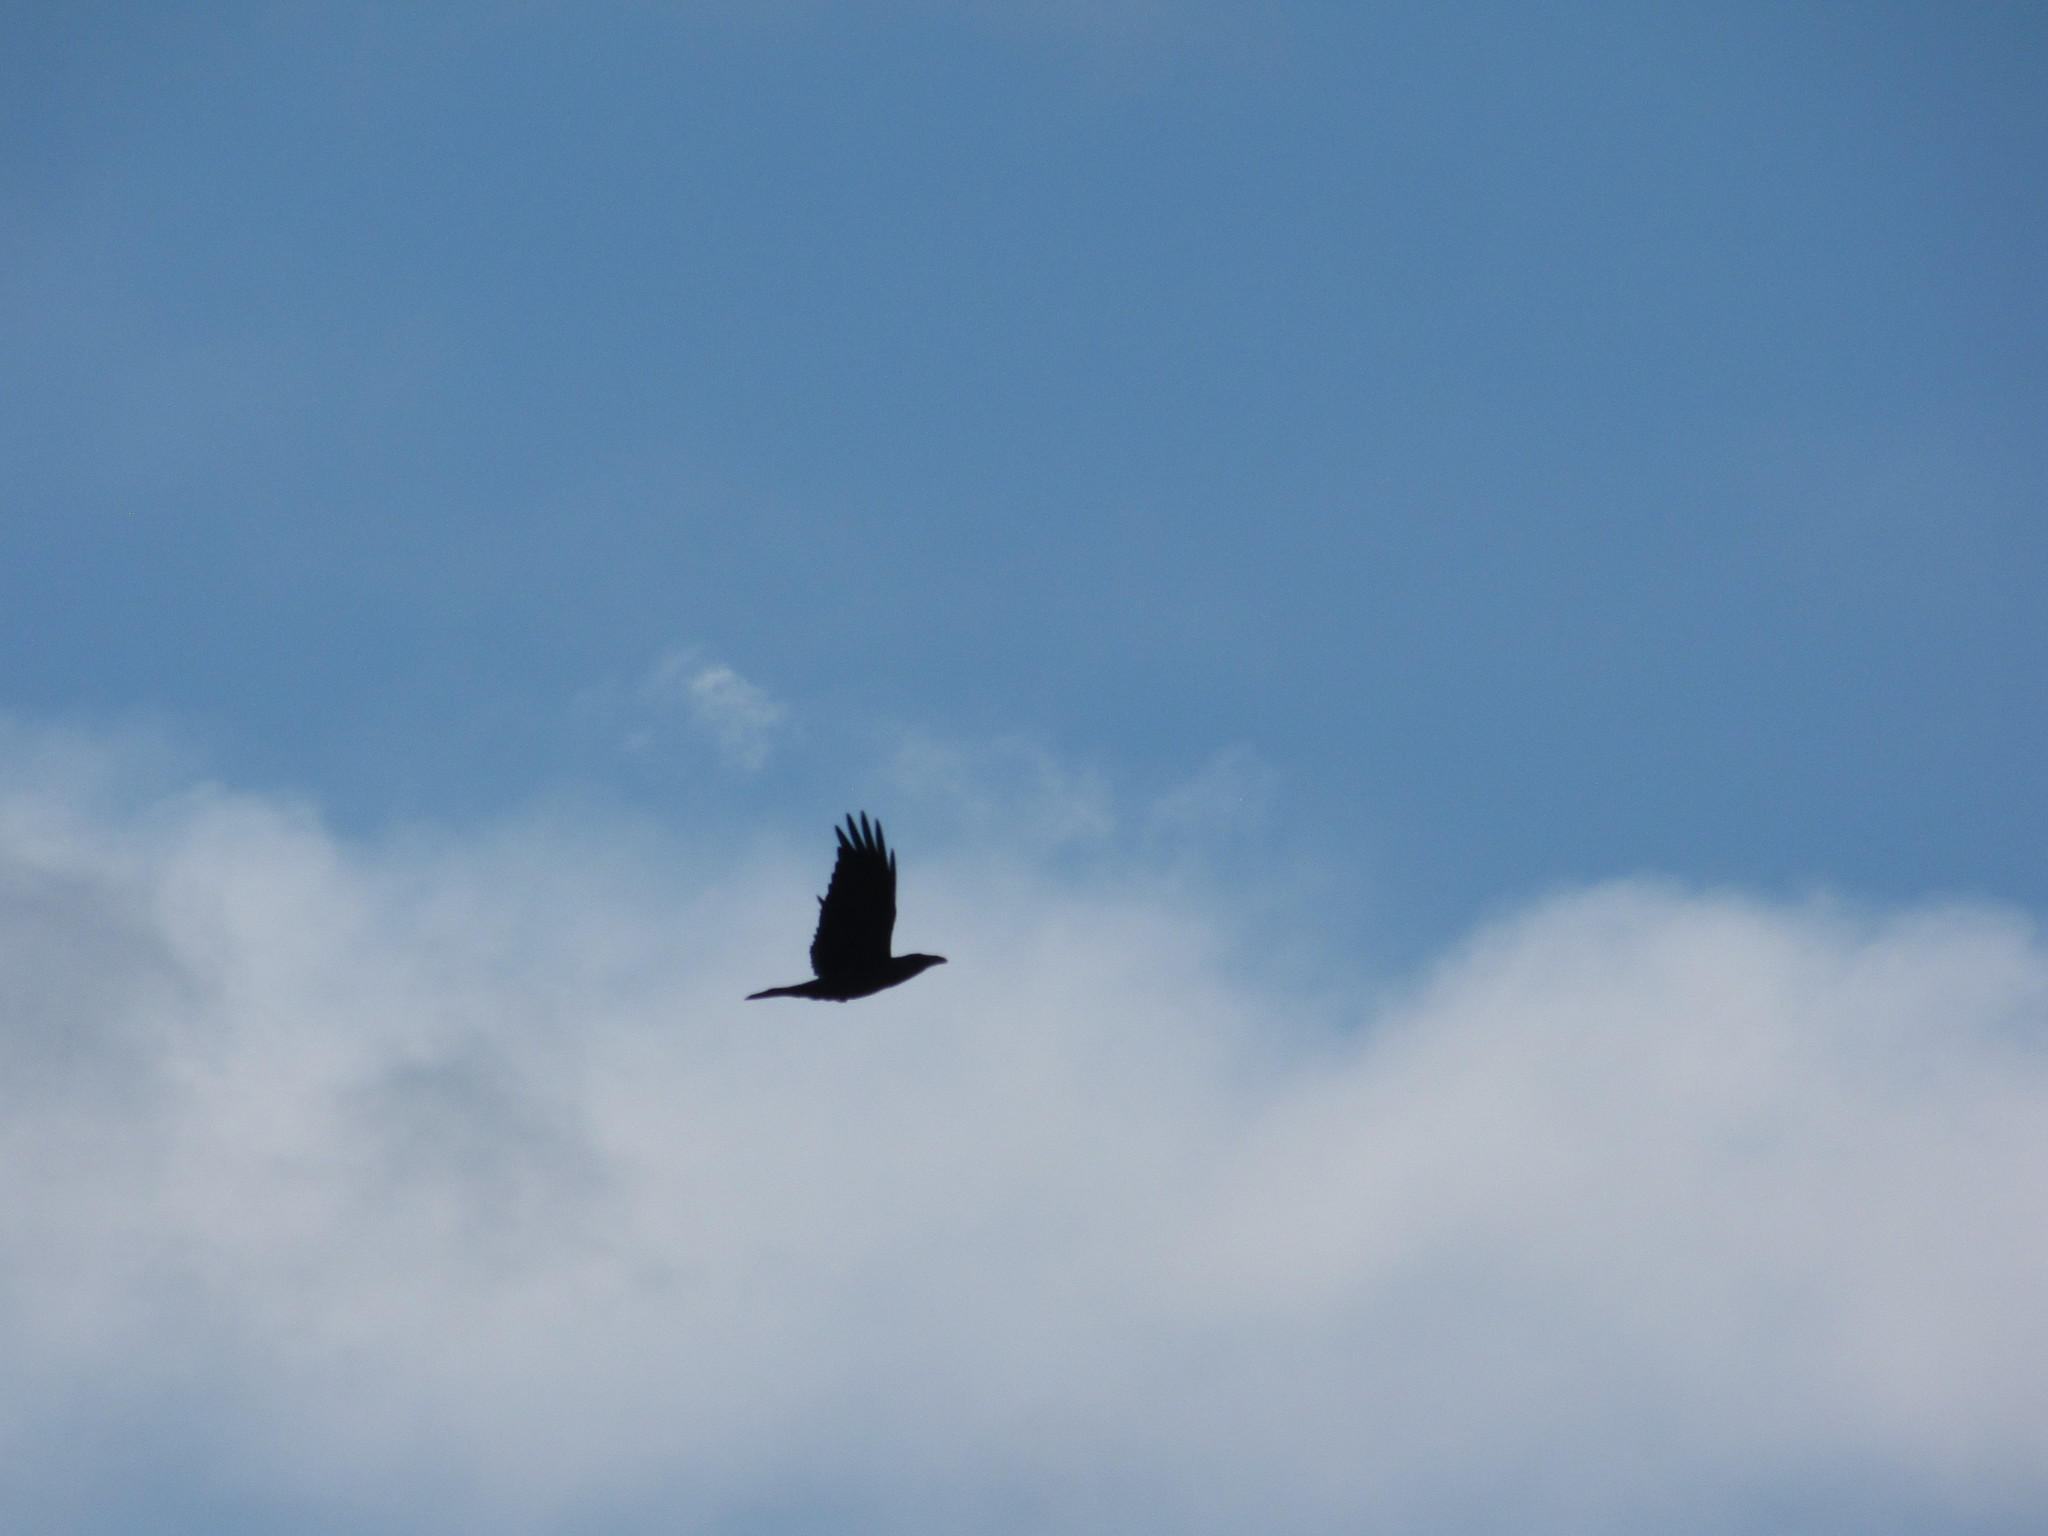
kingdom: Animalia
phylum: Chordata
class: Aves
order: Passeriformes
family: Corvidae
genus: Corvus
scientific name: Corvus corax
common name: Common raven
